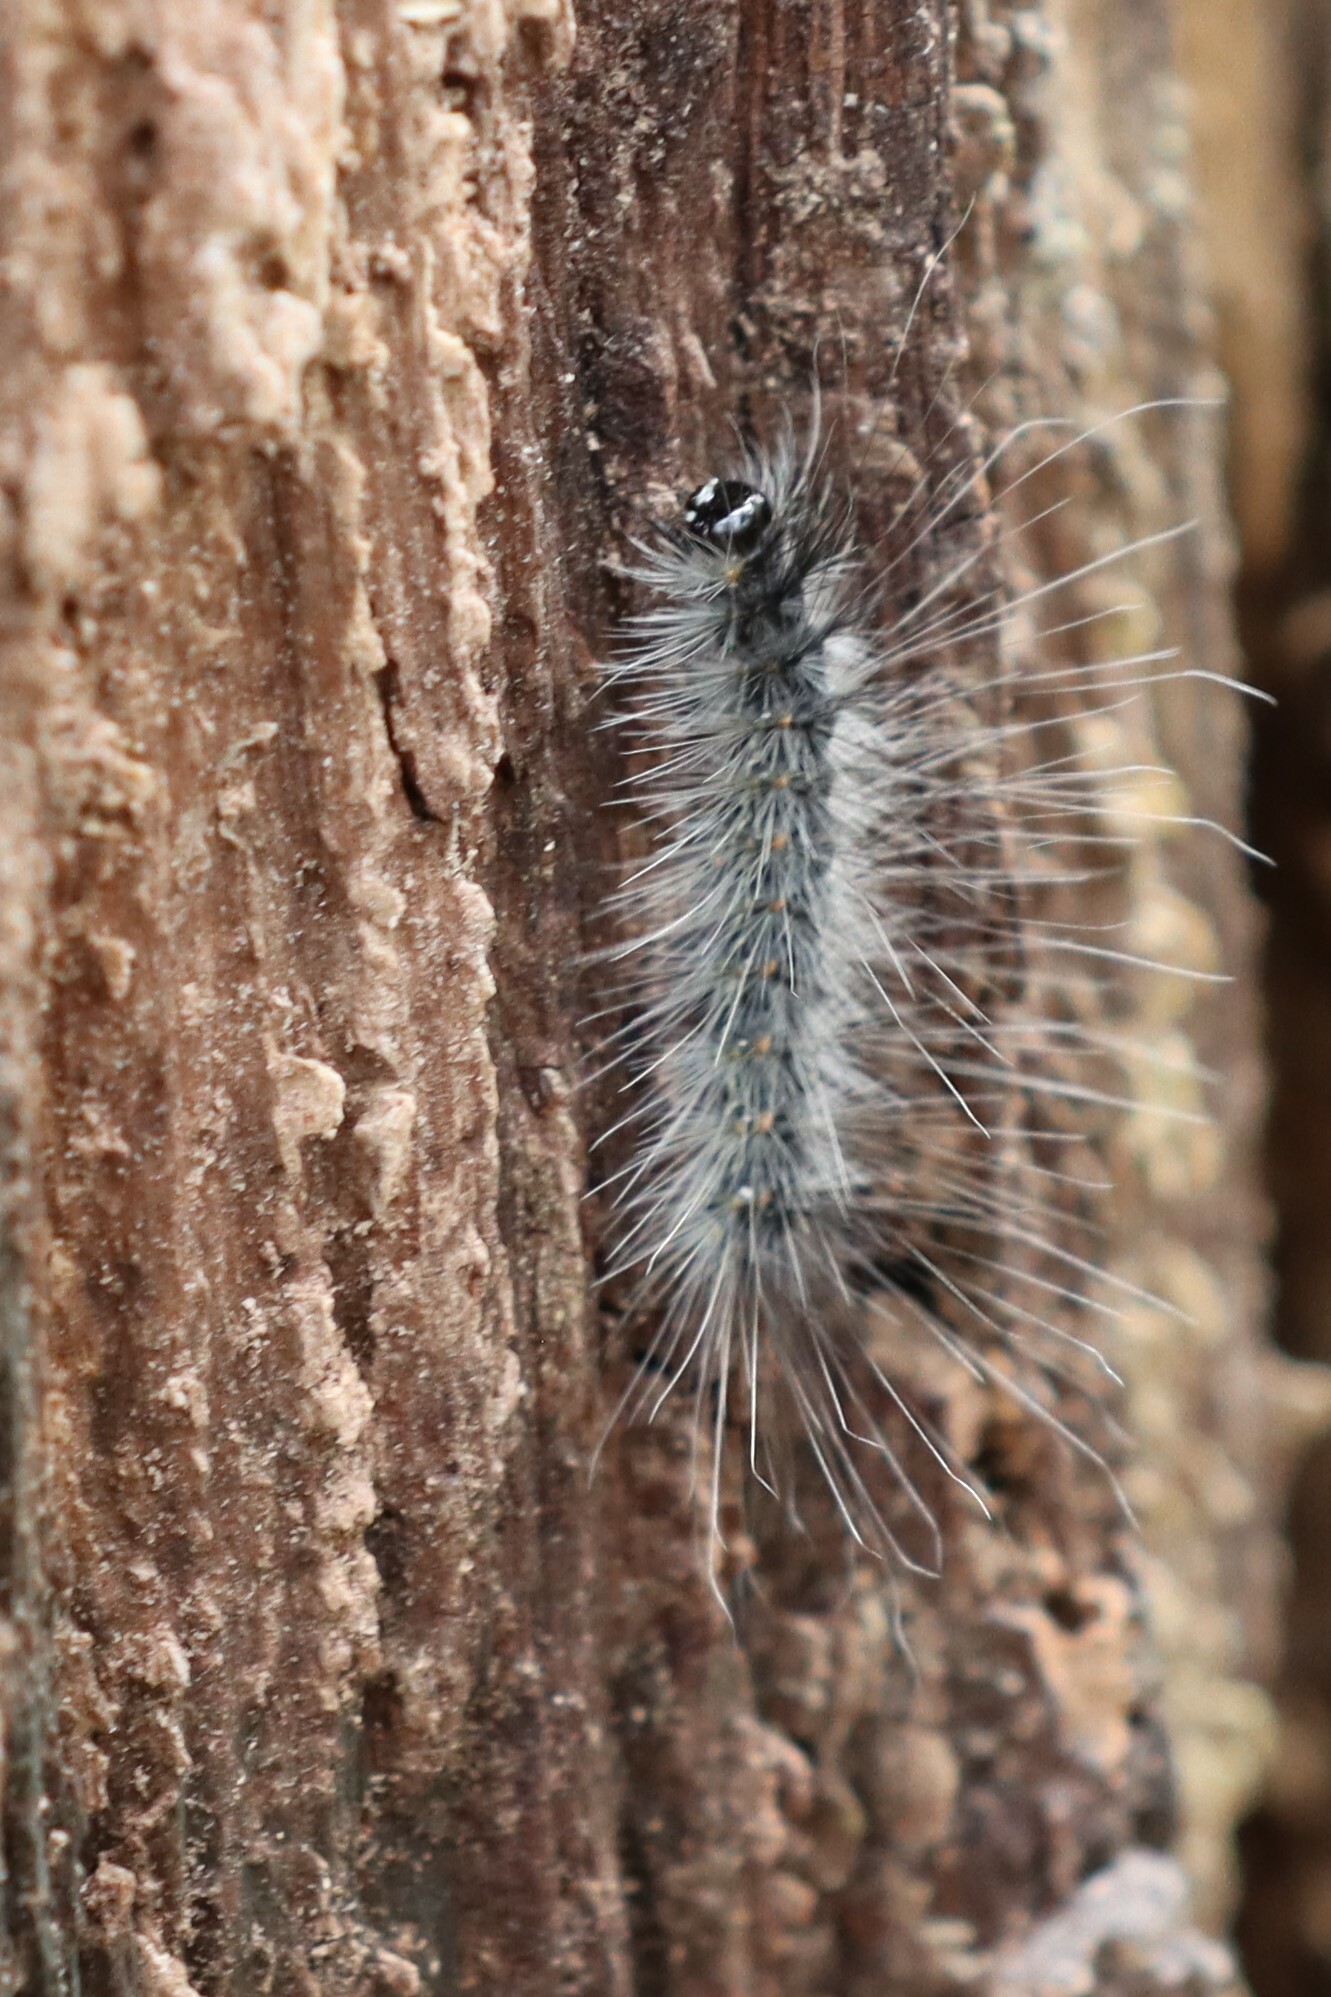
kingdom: Animalia
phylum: Arthropoda
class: Insecta
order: Lepidoptera
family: Erebidae
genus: Hyphantria
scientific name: Hyphantria cunea
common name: American white moth
